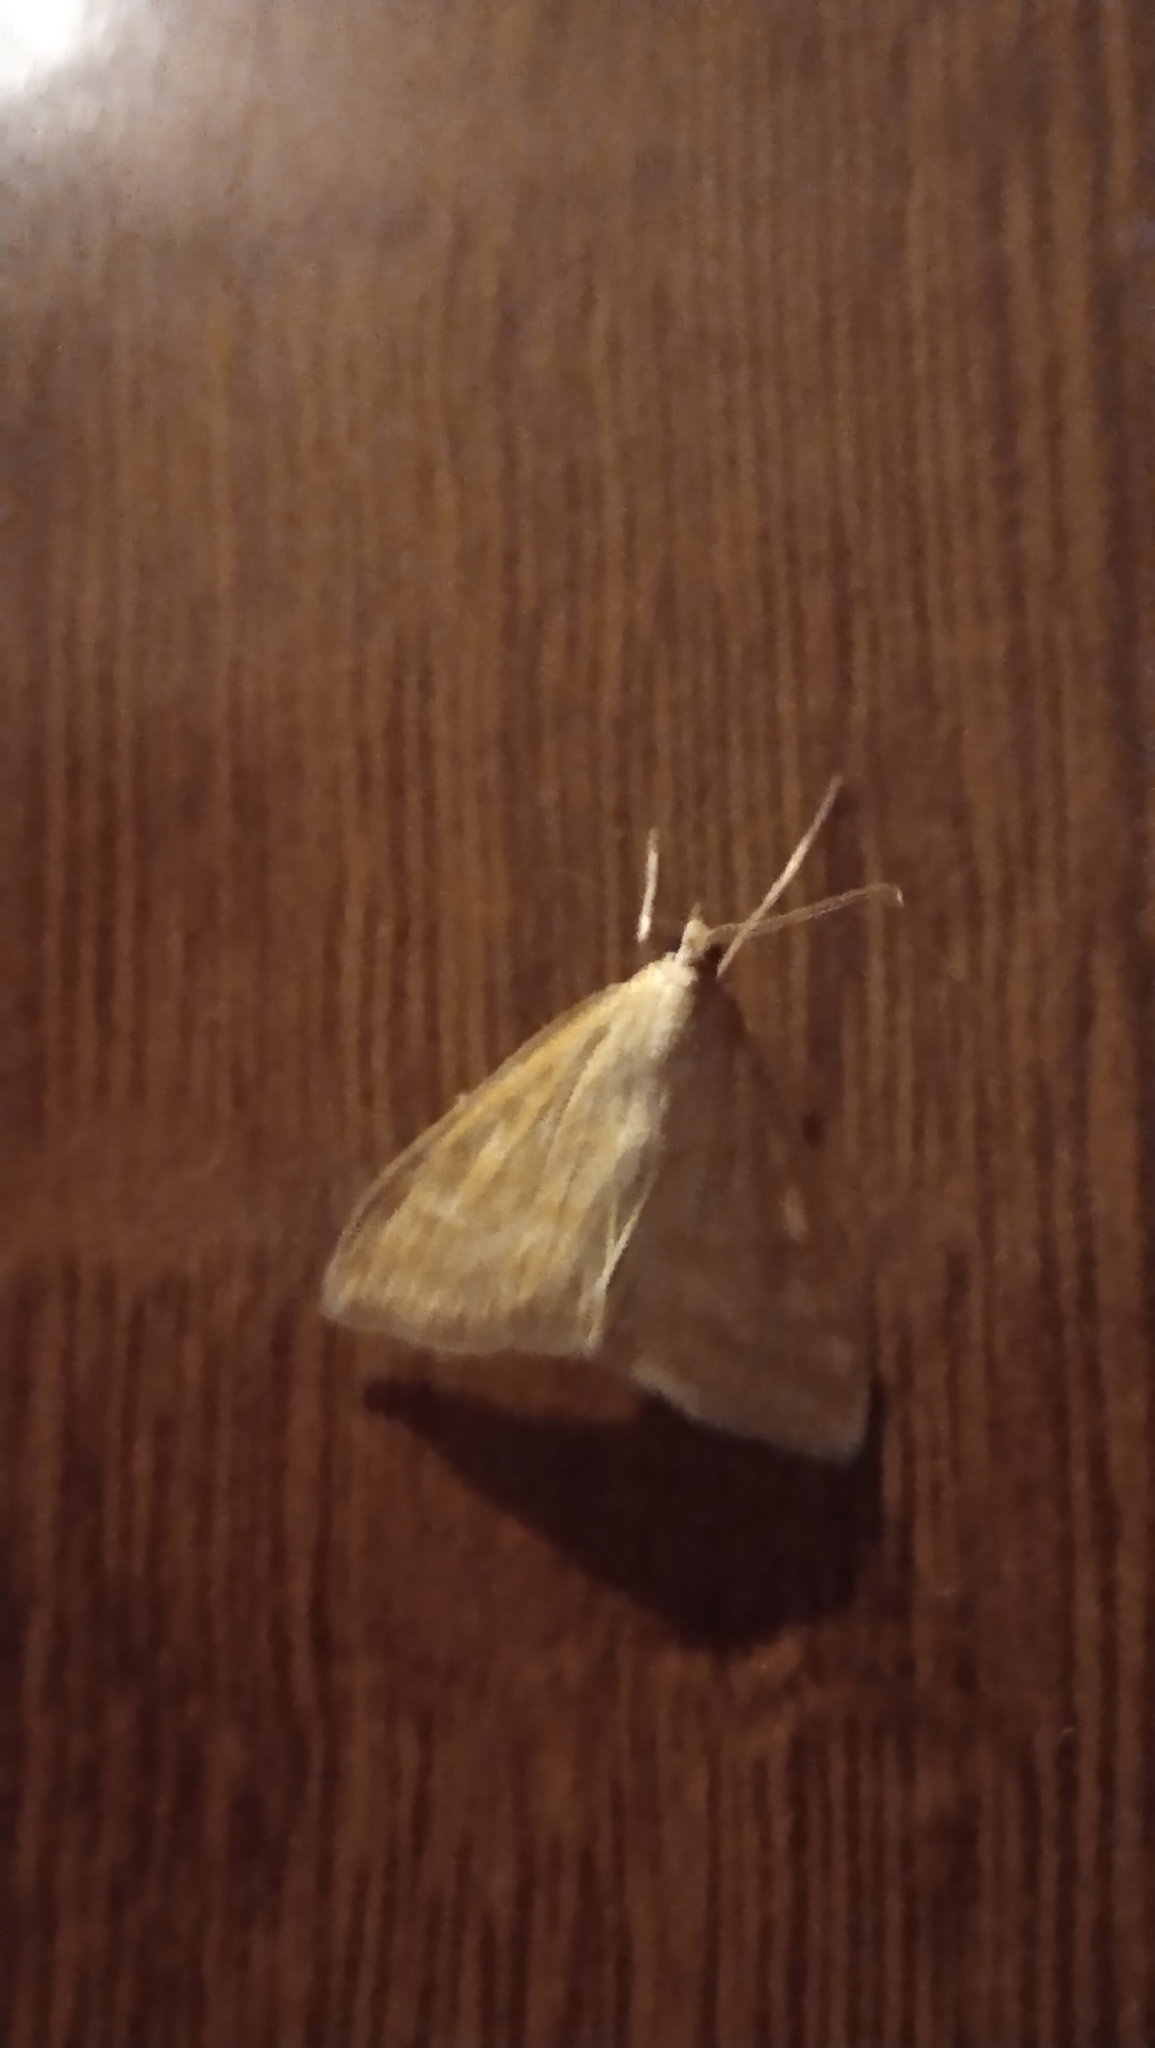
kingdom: Animalia
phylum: Arthropoda
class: Insecta
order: Lepidoptera
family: Crambidae
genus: Sitochroa
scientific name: Sitochroa verticalis
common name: Lesser pearl
